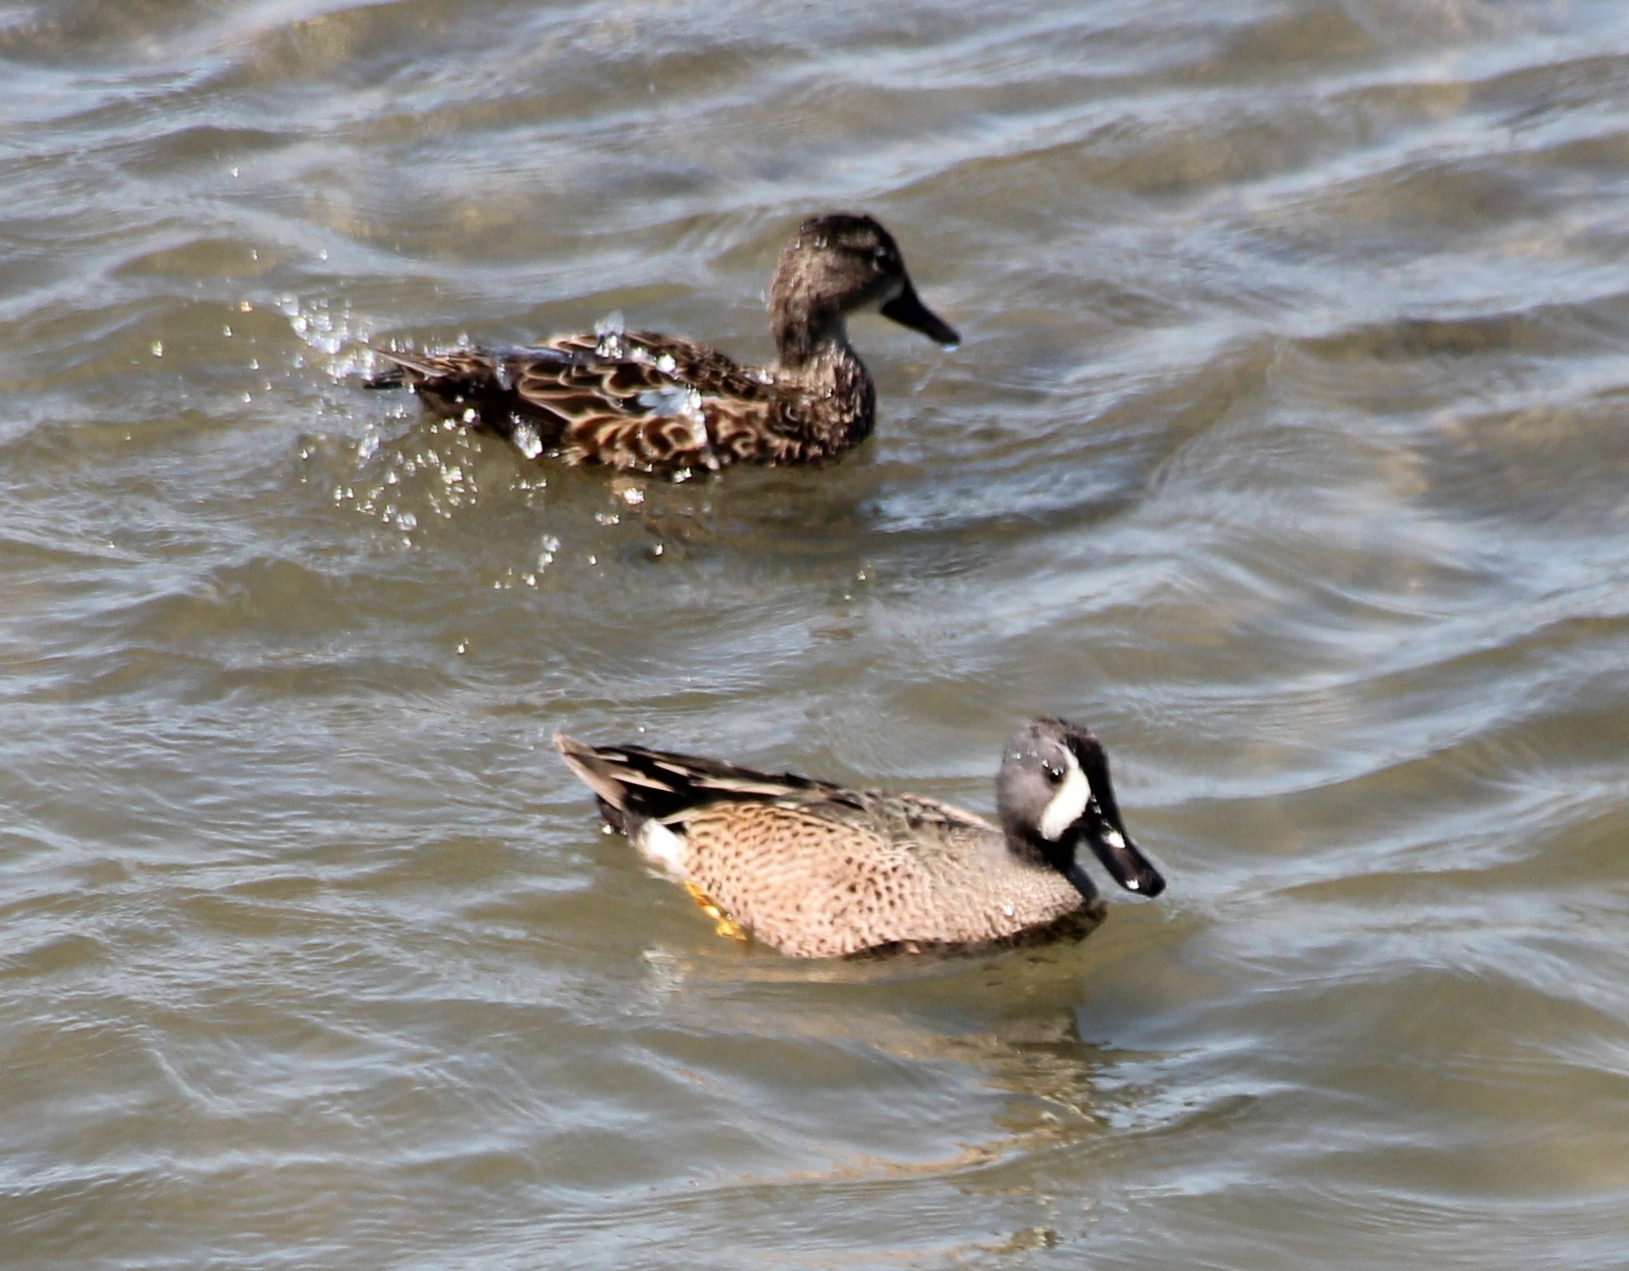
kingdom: Animalia
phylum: Chordata
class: Aves
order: Anseriformes
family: Anatidae
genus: Spatula
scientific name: Spatula discors
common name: Blue-winged teal
